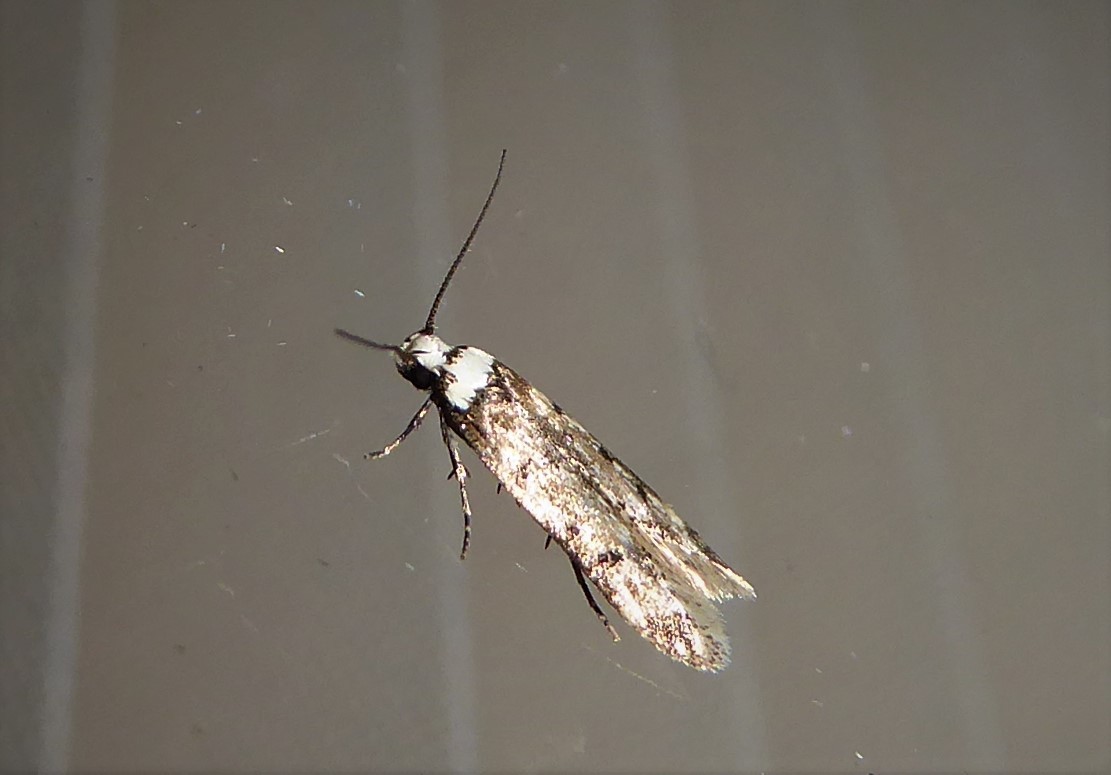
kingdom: Animalia
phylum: Arthropoda
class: Insecta
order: Lepidoptera
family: Oecophoridae
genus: Endrosis
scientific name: Endrosis sarcitrella
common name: White-shouldered house moth
